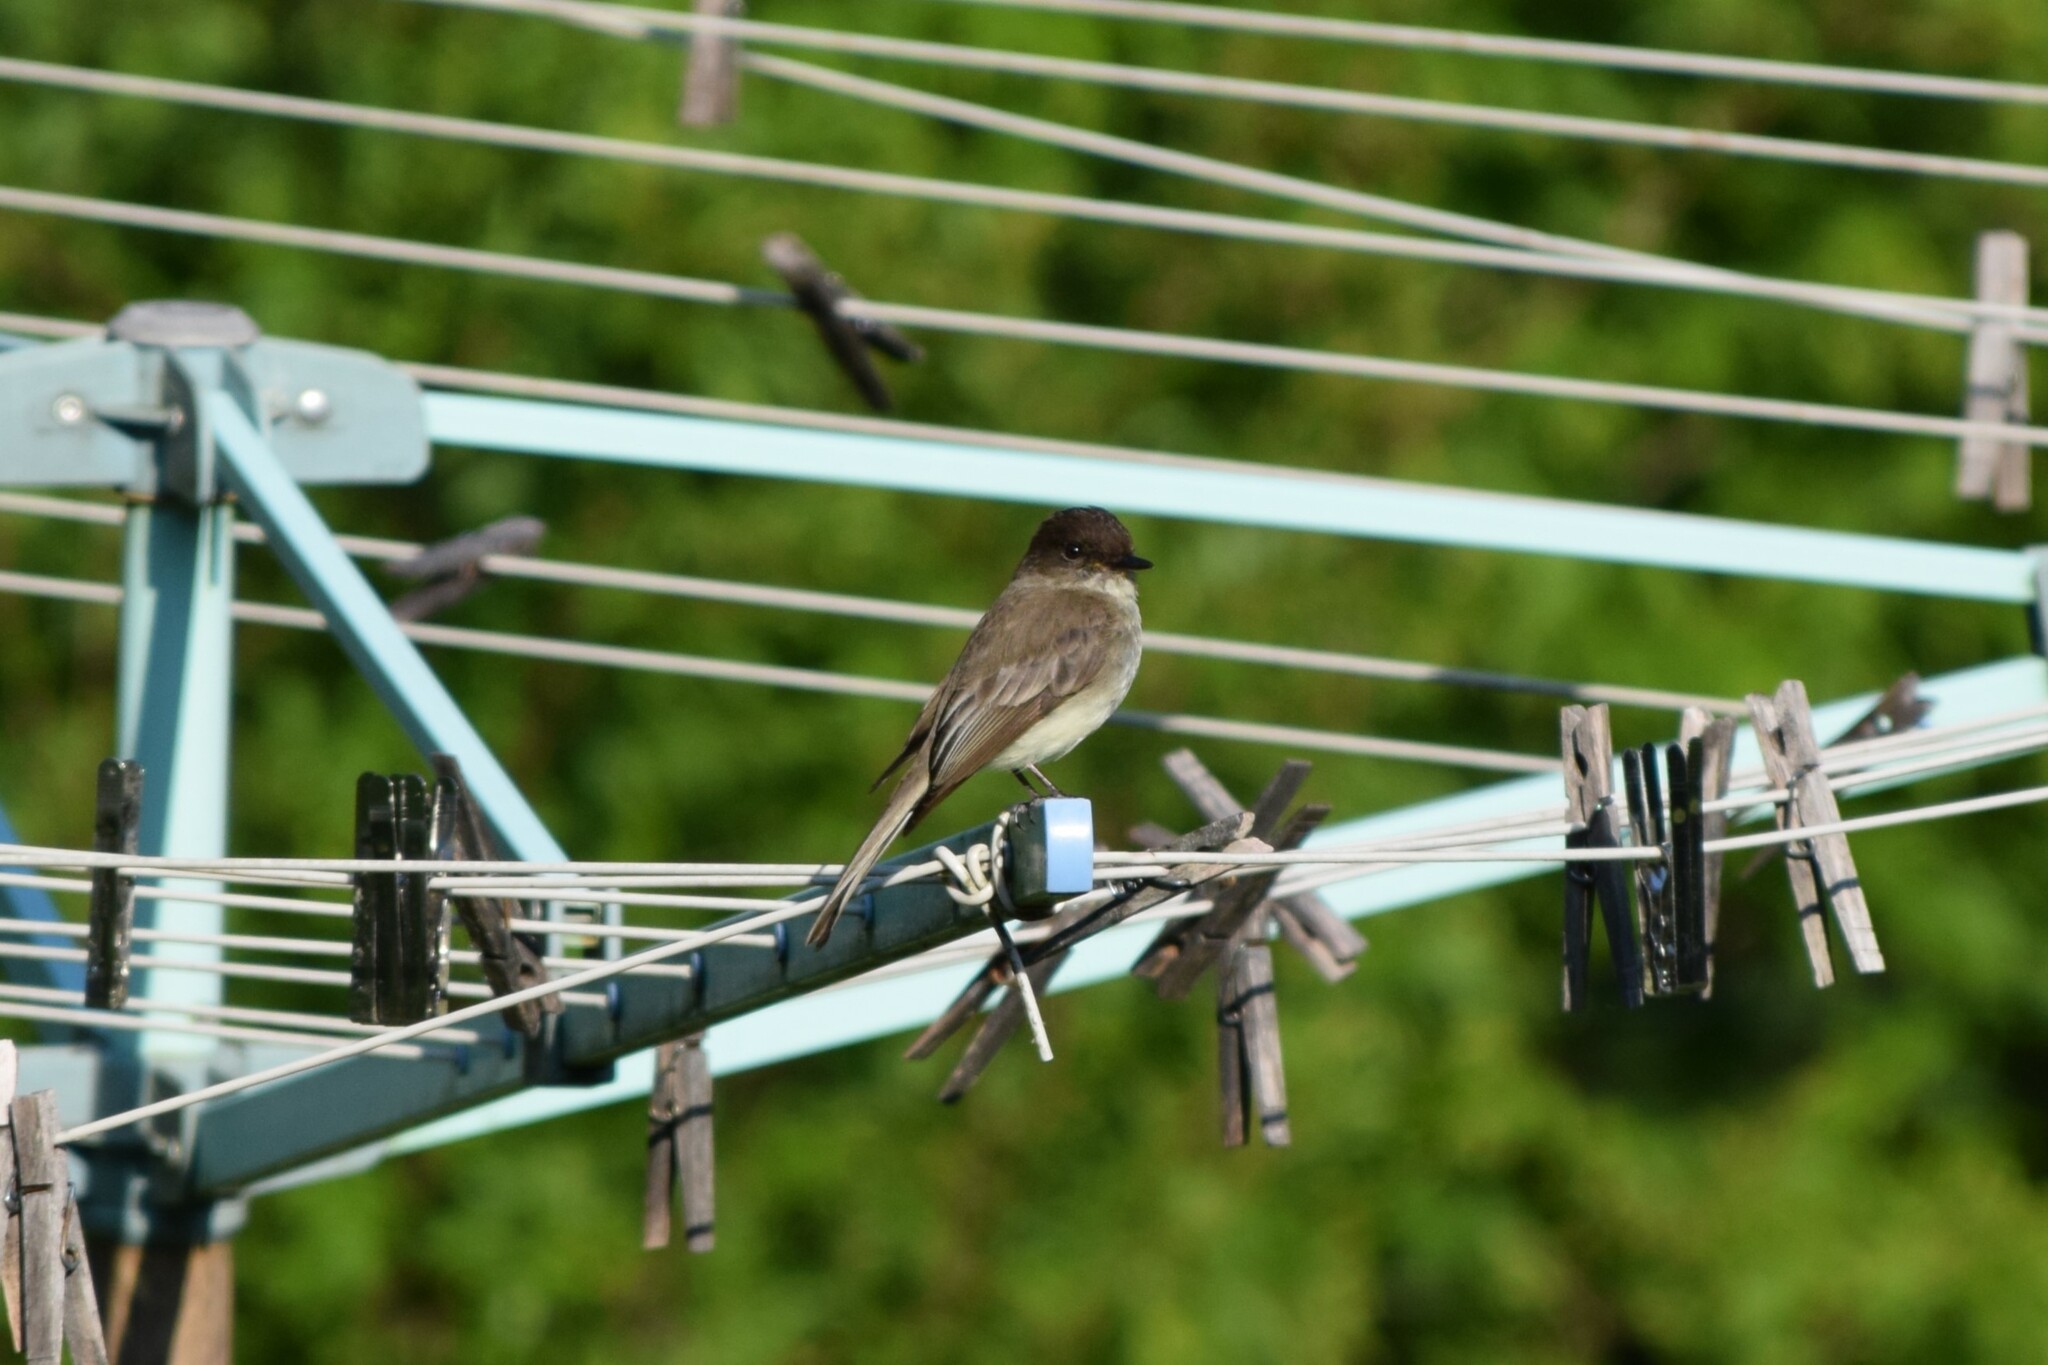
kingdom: Animalia
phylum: Chordata
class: Aves
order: Passeriformes
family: Tyrannidae
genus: Sayornis
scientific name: Sayornis phoebe
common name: Eastern phoebe
